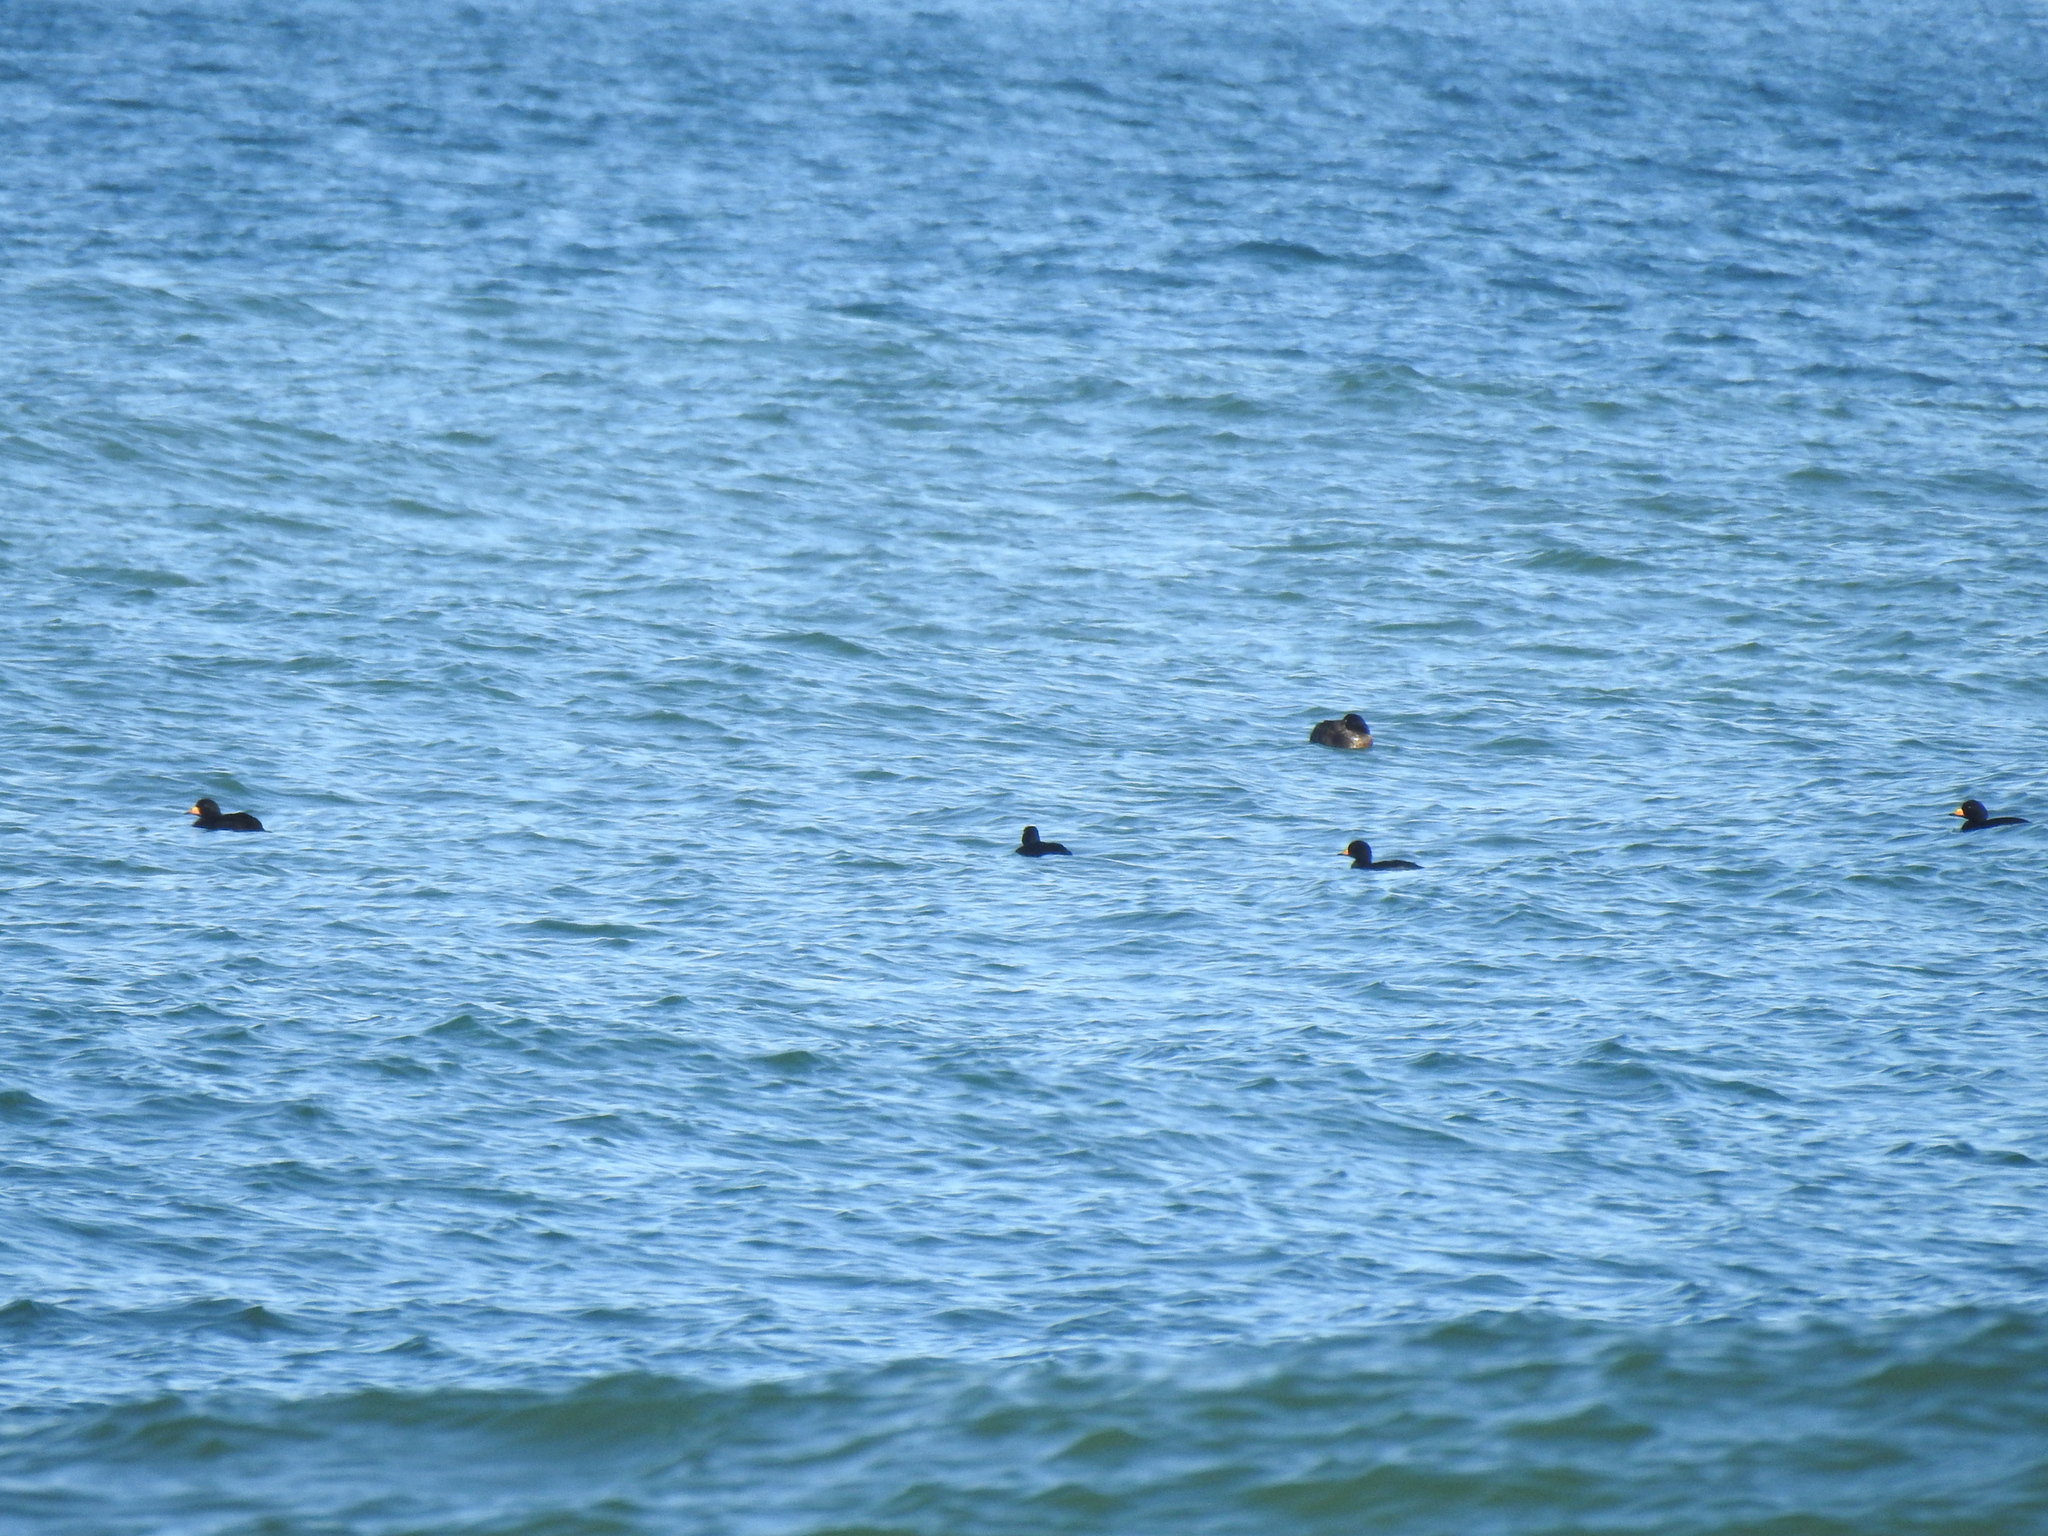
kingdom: Animalia
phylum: Chordata
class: Aves
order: Anseriformes
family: Anatidae
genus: Melanitta
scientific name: Melanitta americana
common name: Black scoter
